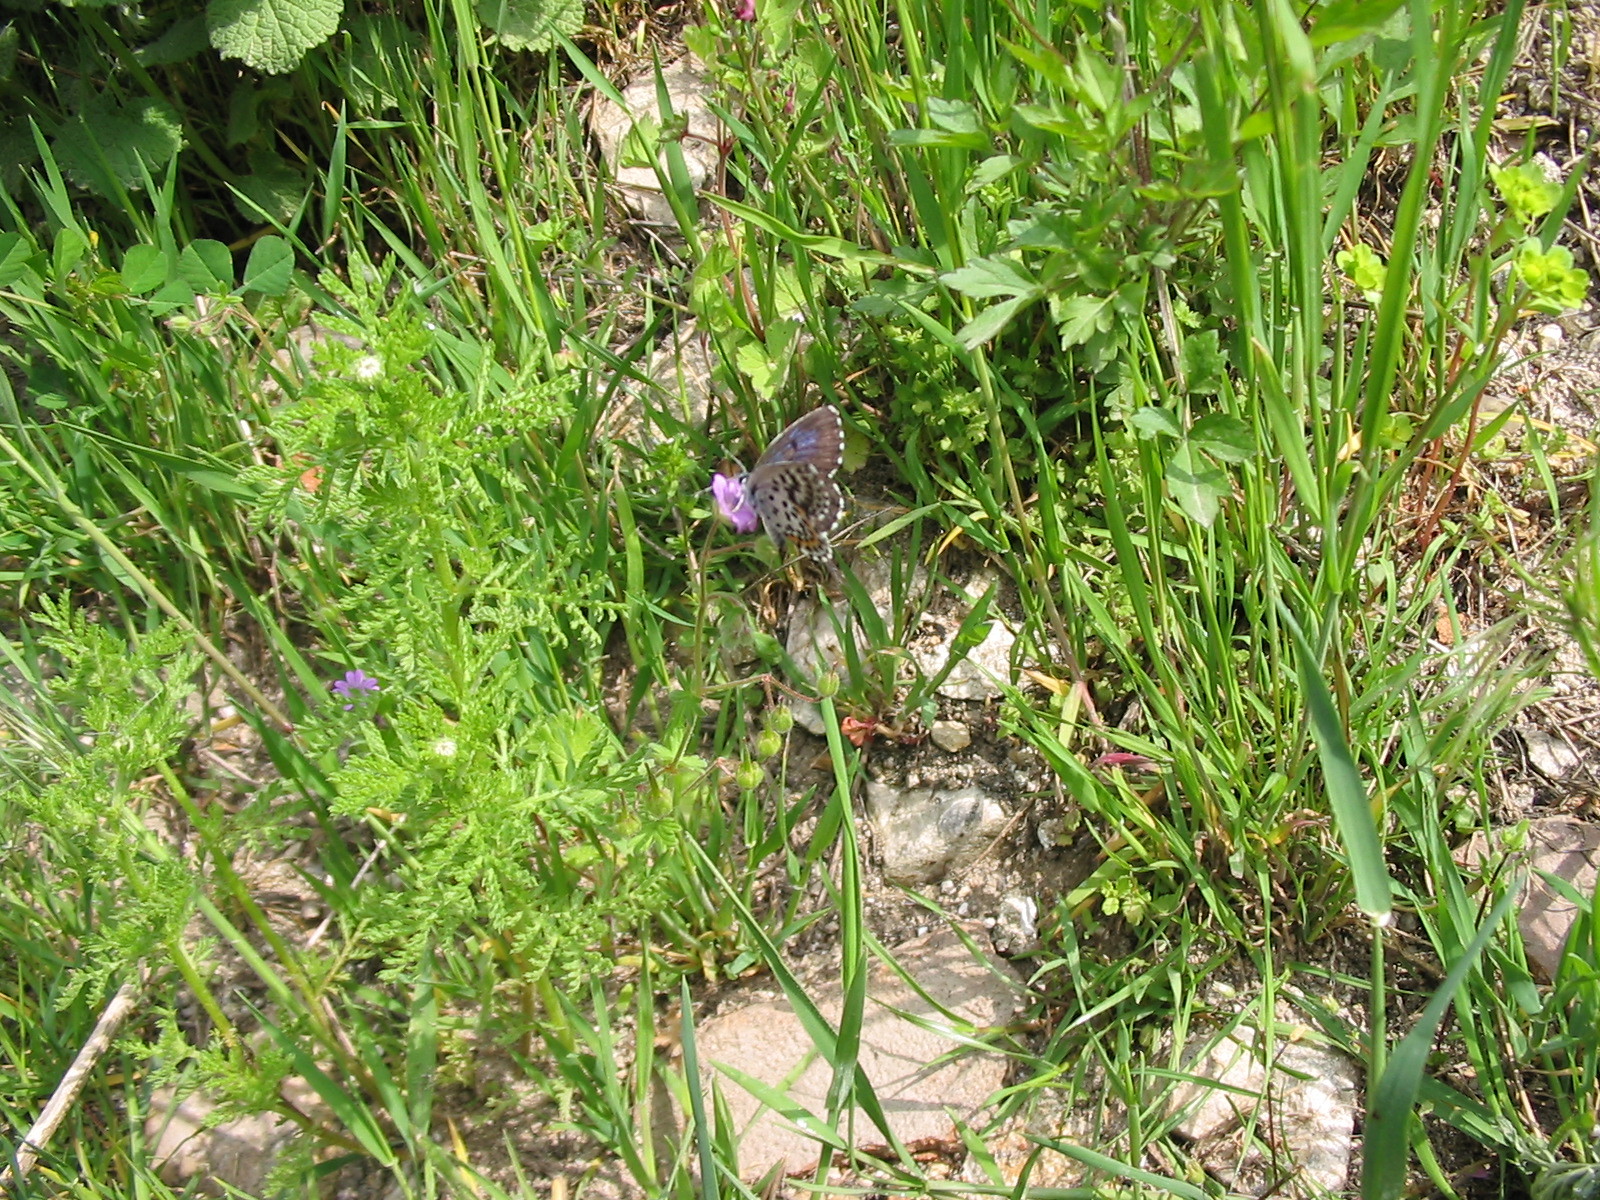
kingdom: Animalia
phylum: Arthropoda
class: Insecta
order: Lepidoptera
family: Lycaenidae
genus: Scolitantides
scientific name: Scolitantides orion
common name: Chequered blue
